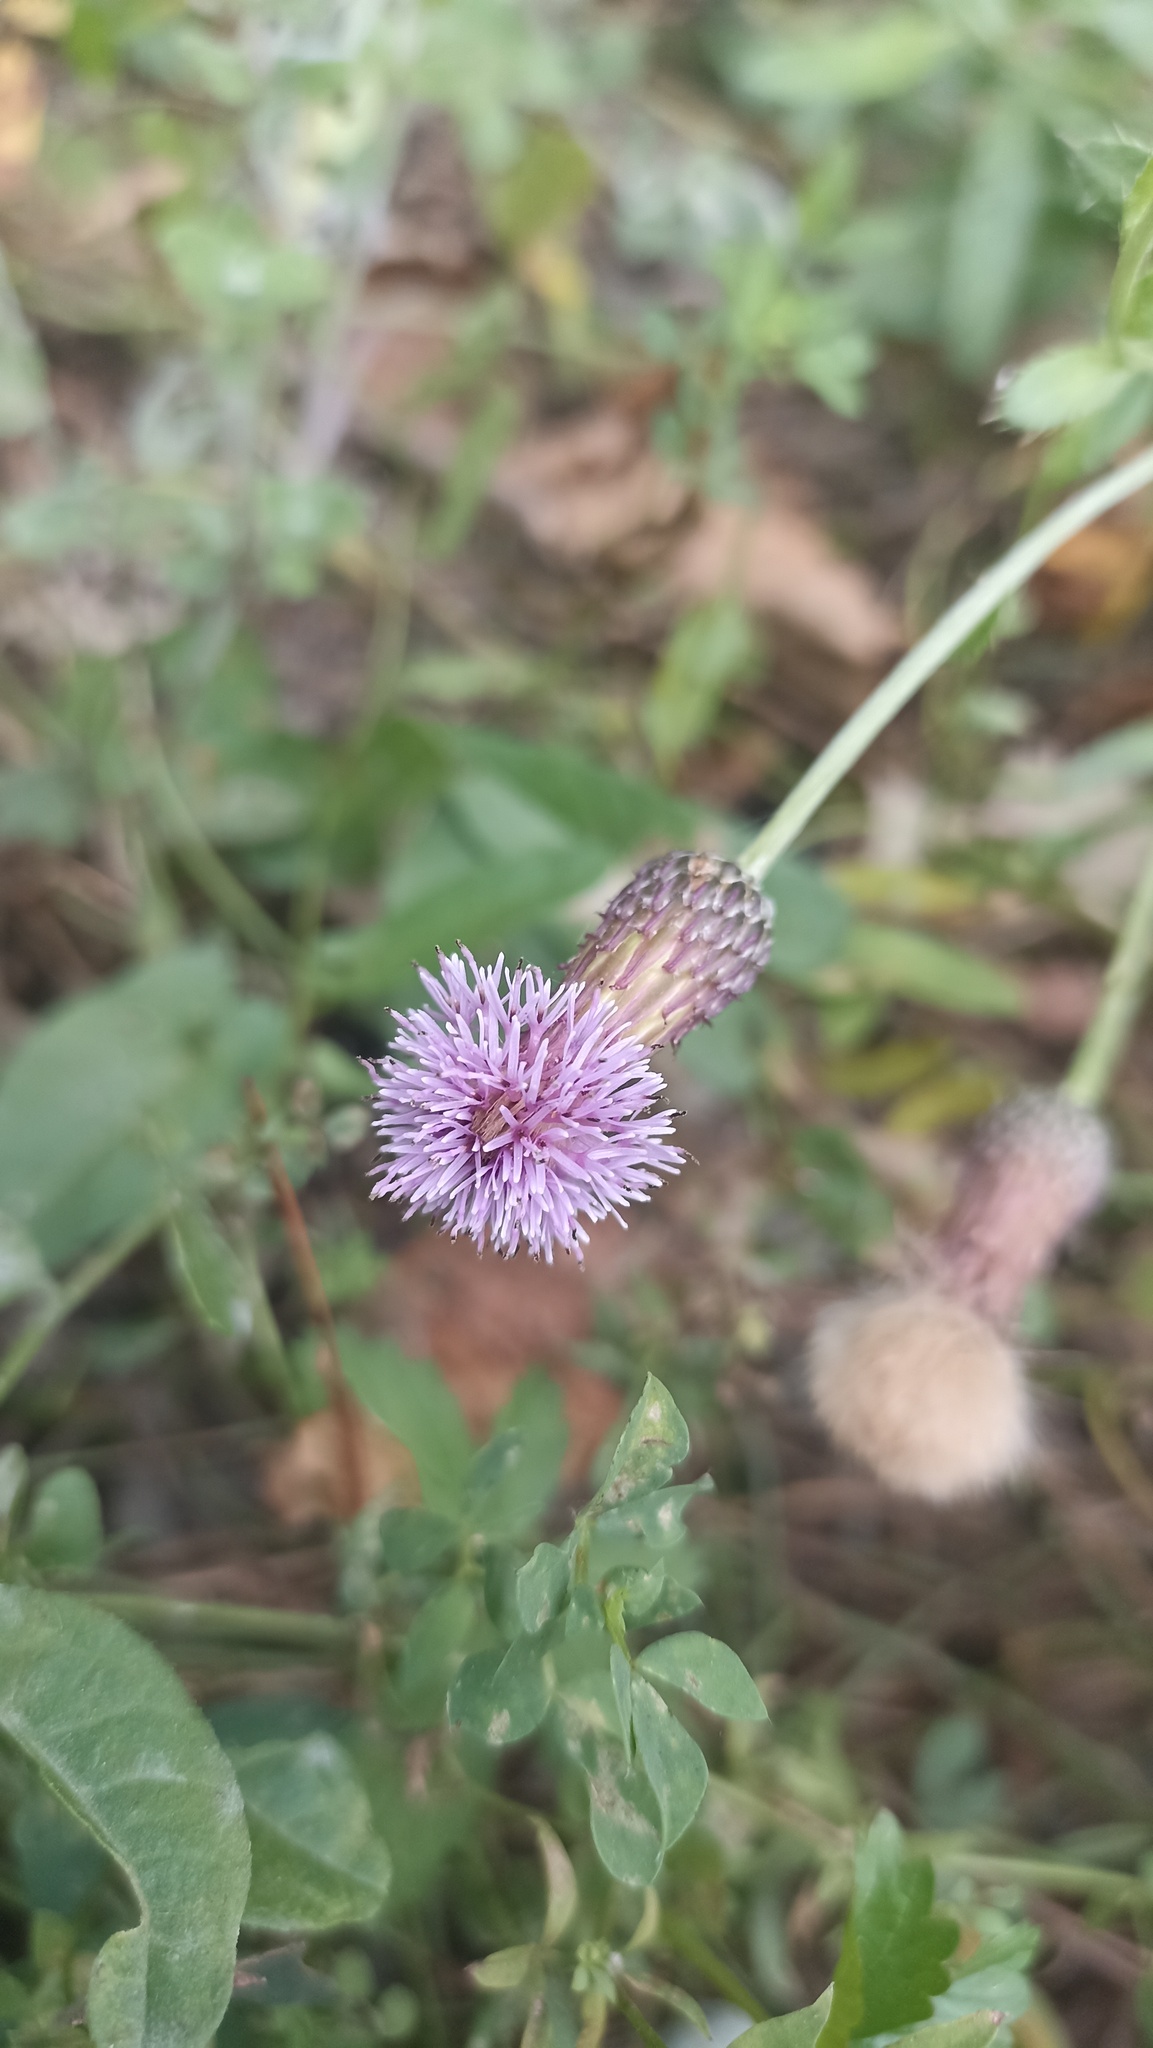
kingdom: Plantae
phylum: Tracheophyta
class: Magnoliopsida
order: Asterales
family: Asteraceae
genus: Cirsium
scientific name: Cirsium arvense
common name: Creeping thistle
